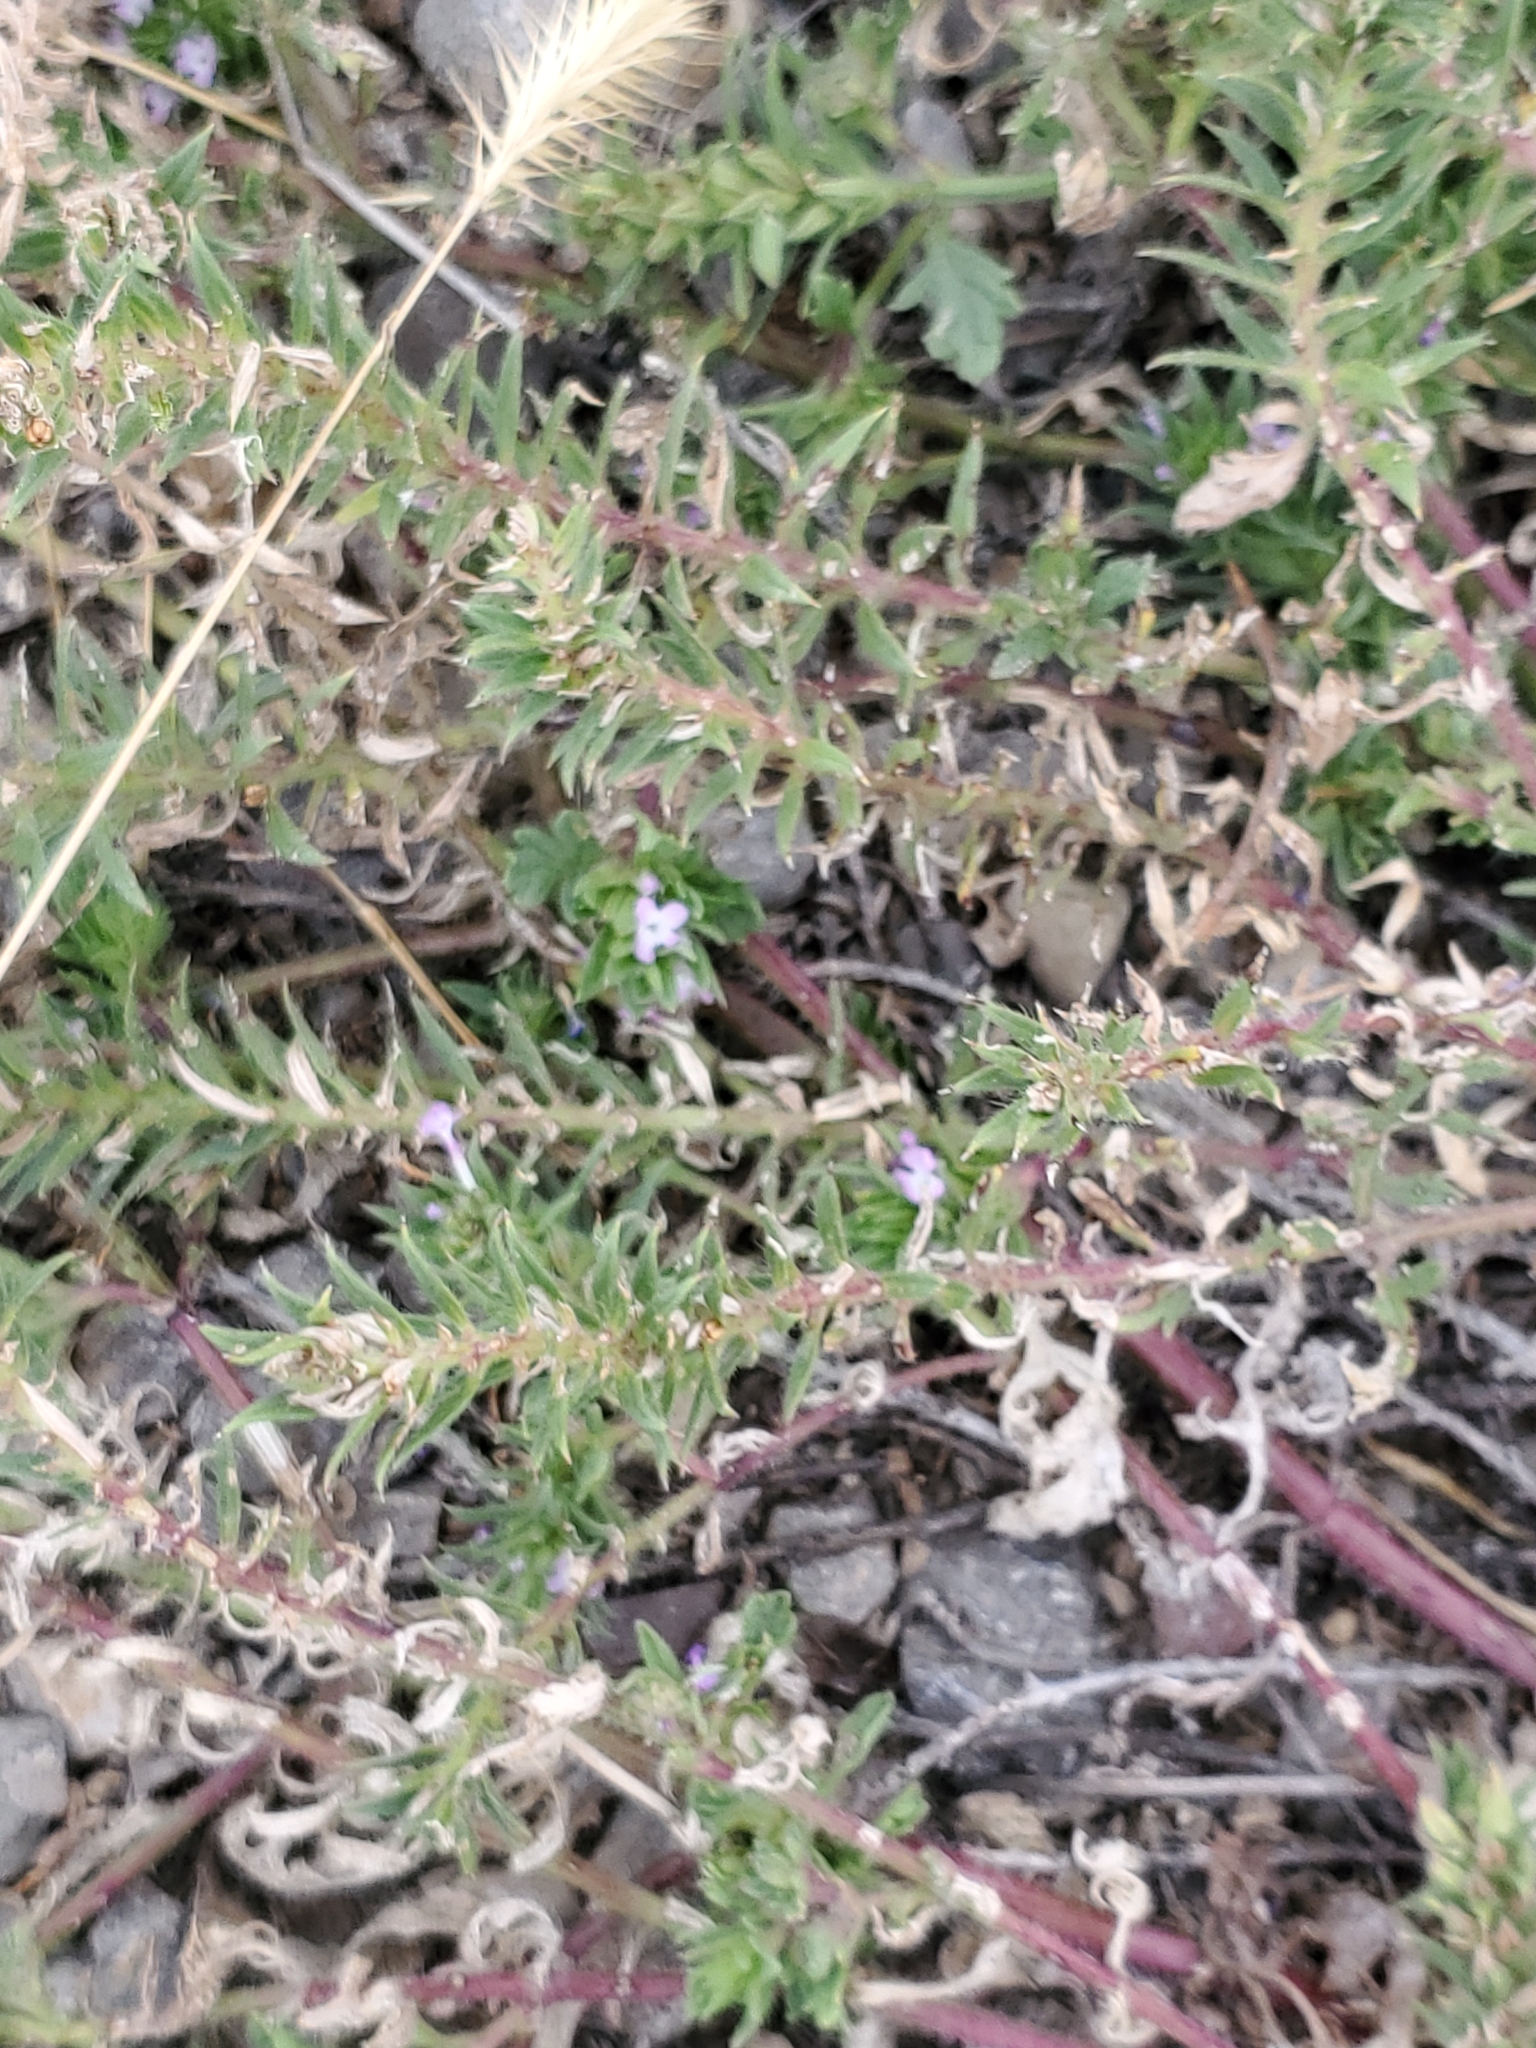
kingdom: Plantae
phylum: Tracheophyta
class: Magnoliopsida
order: Lamiales
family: Verbenaceae
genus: Verbena
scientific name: Verbena bracteata
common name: Bracted vervain
